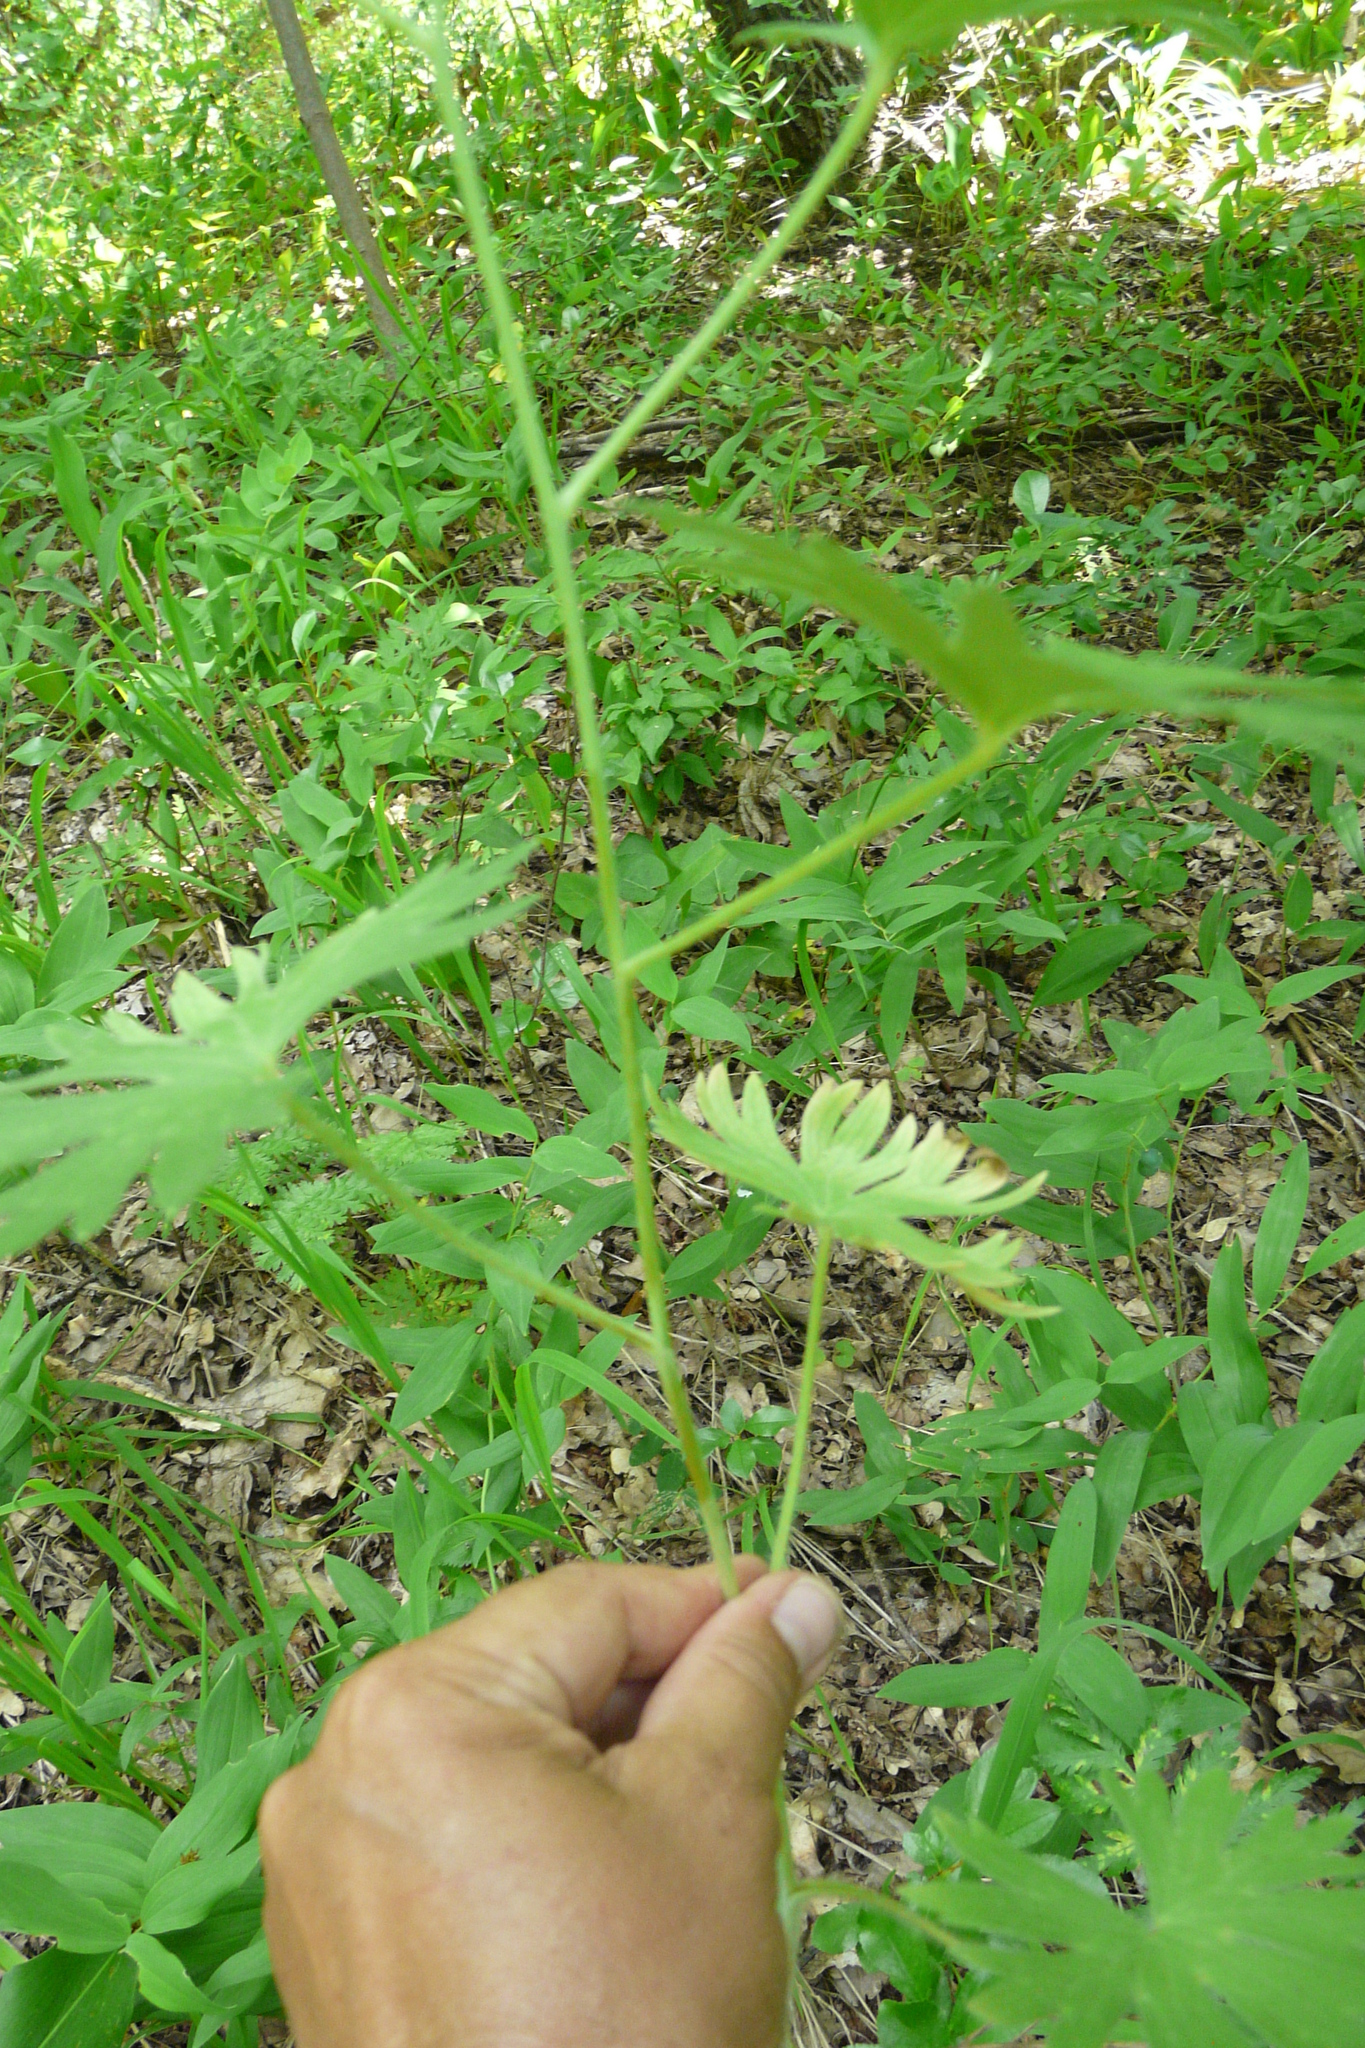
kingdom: Plantae
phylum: Tracheophyta
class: Magnoliopsida
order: Ranunculales
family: Ranunculaceae
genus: Delphinium
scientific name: Delphinium cuneatum
